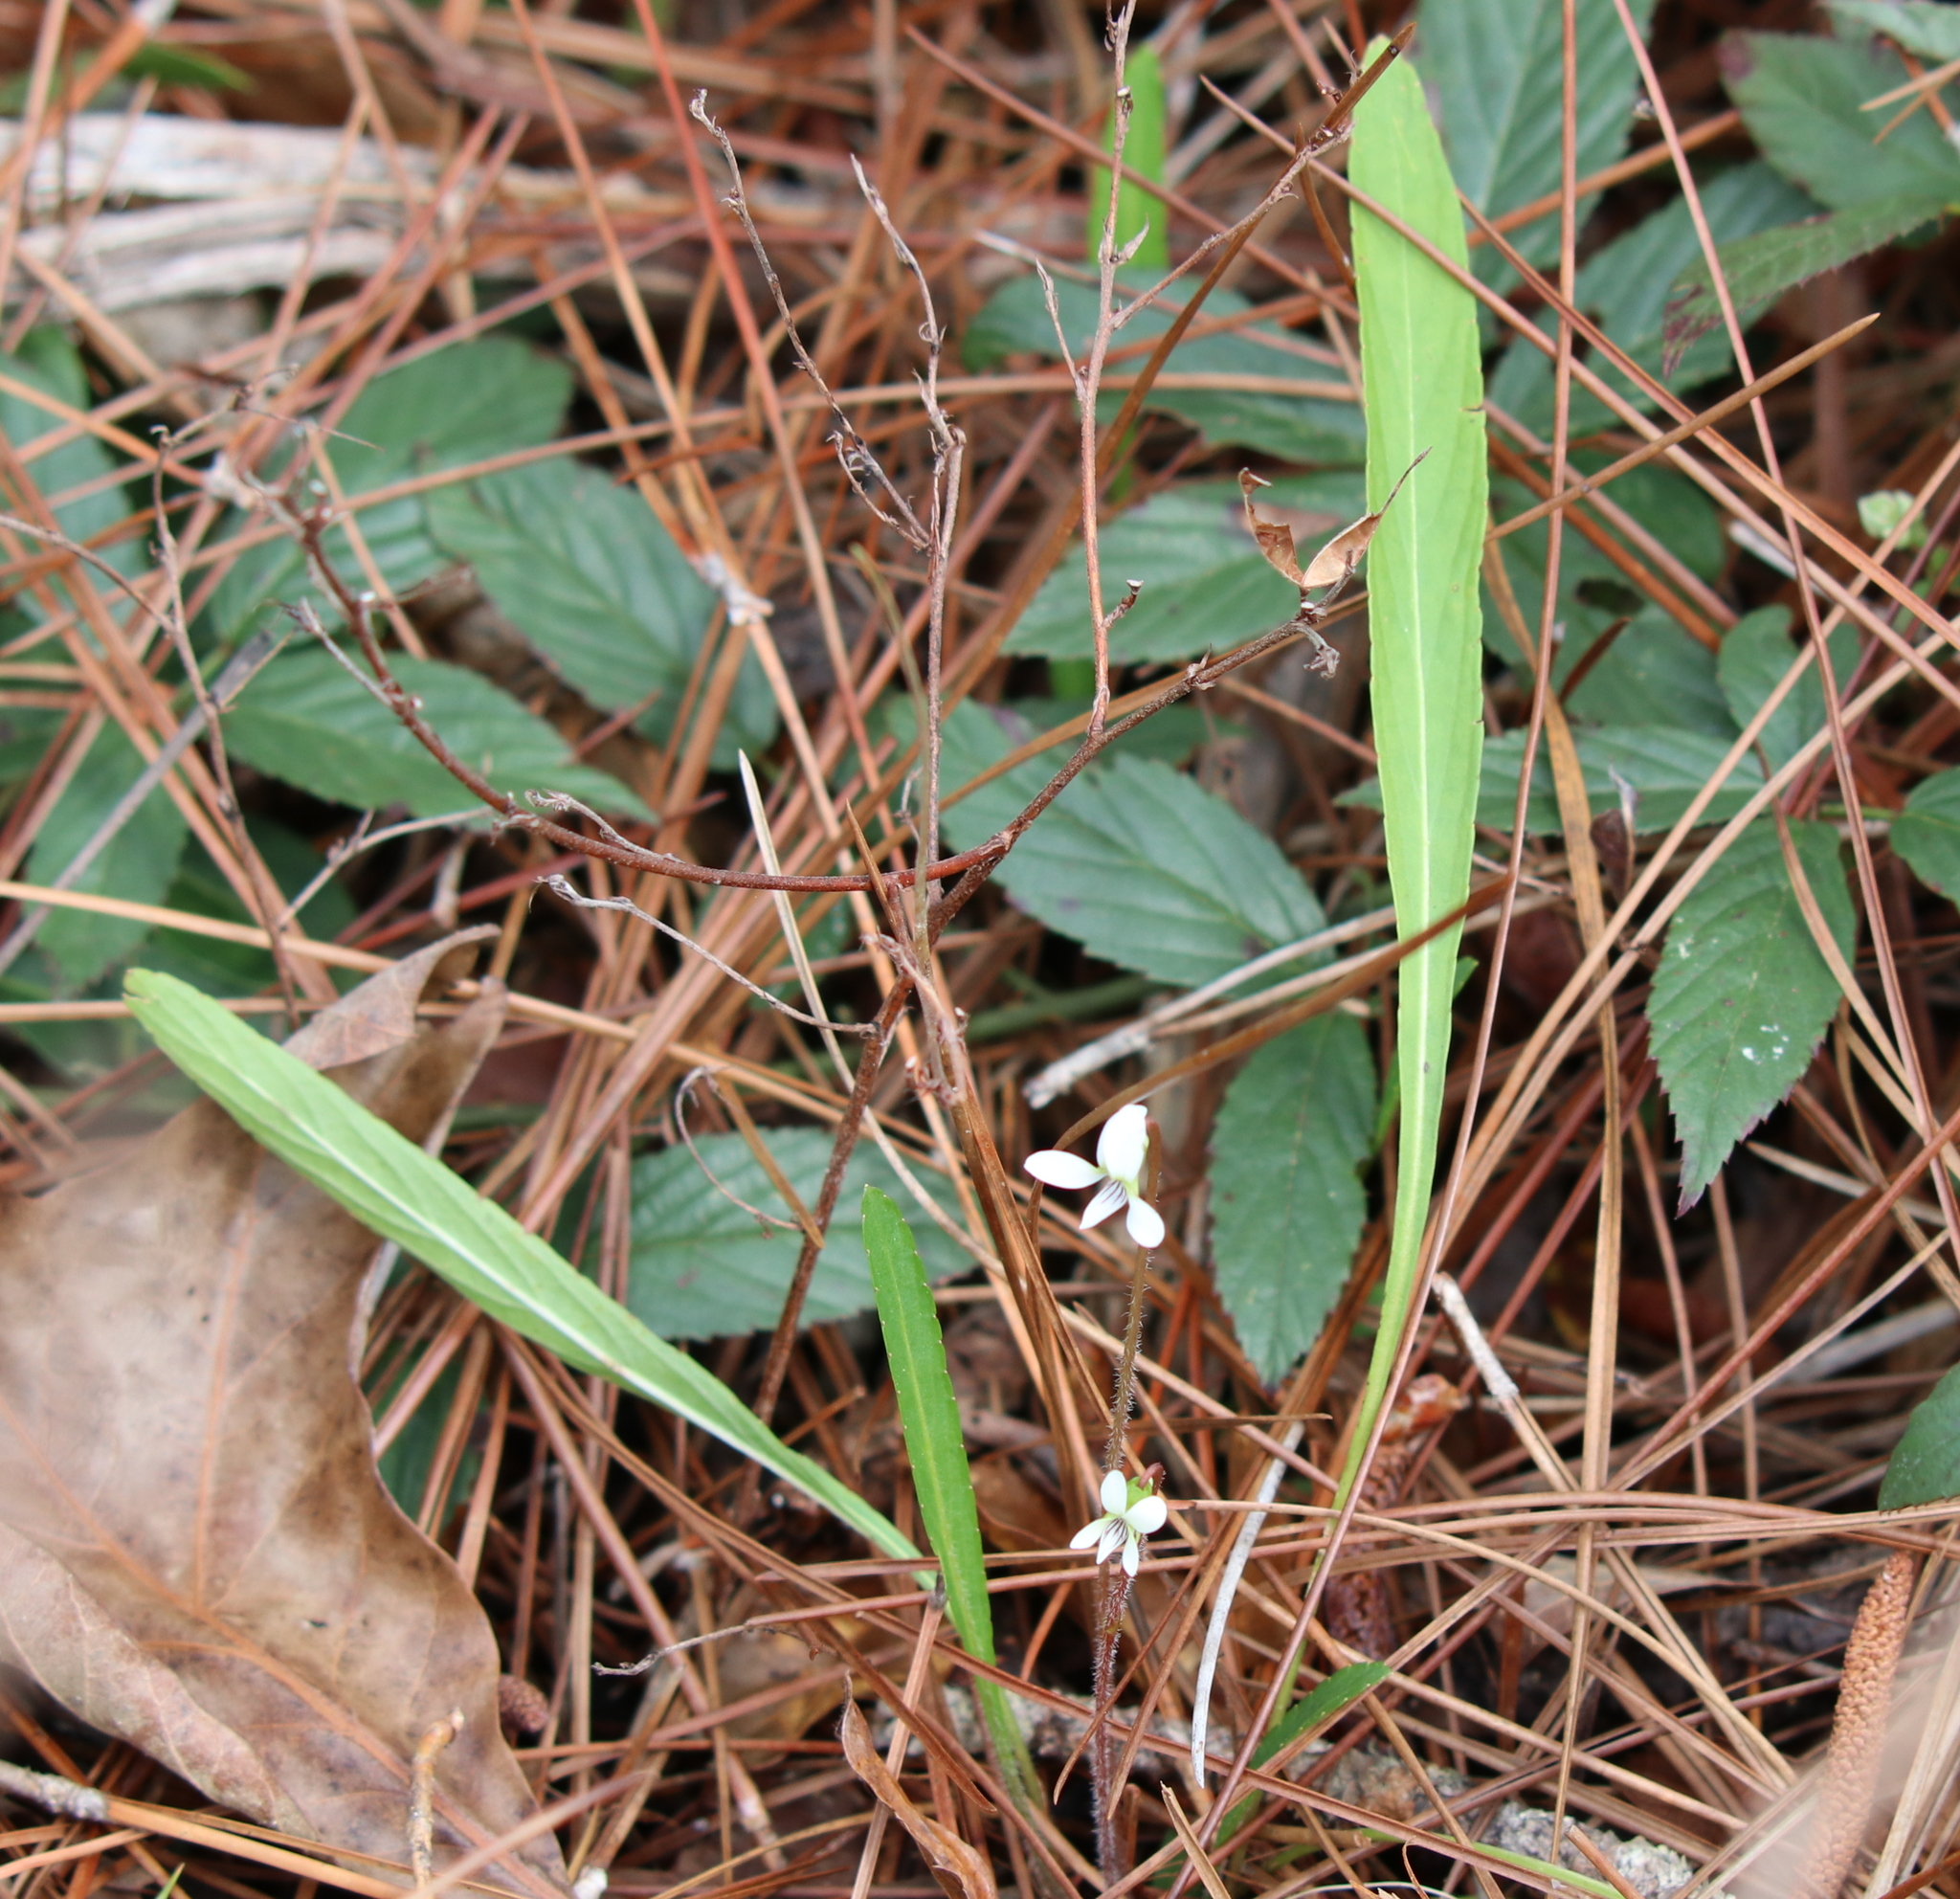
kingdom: Plantae
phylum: Tracheophyta
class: Magnoliopsida
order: Malpighiales
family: Violaceae
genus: Viola
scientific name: Viola lanceolata
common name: Bog white violet
